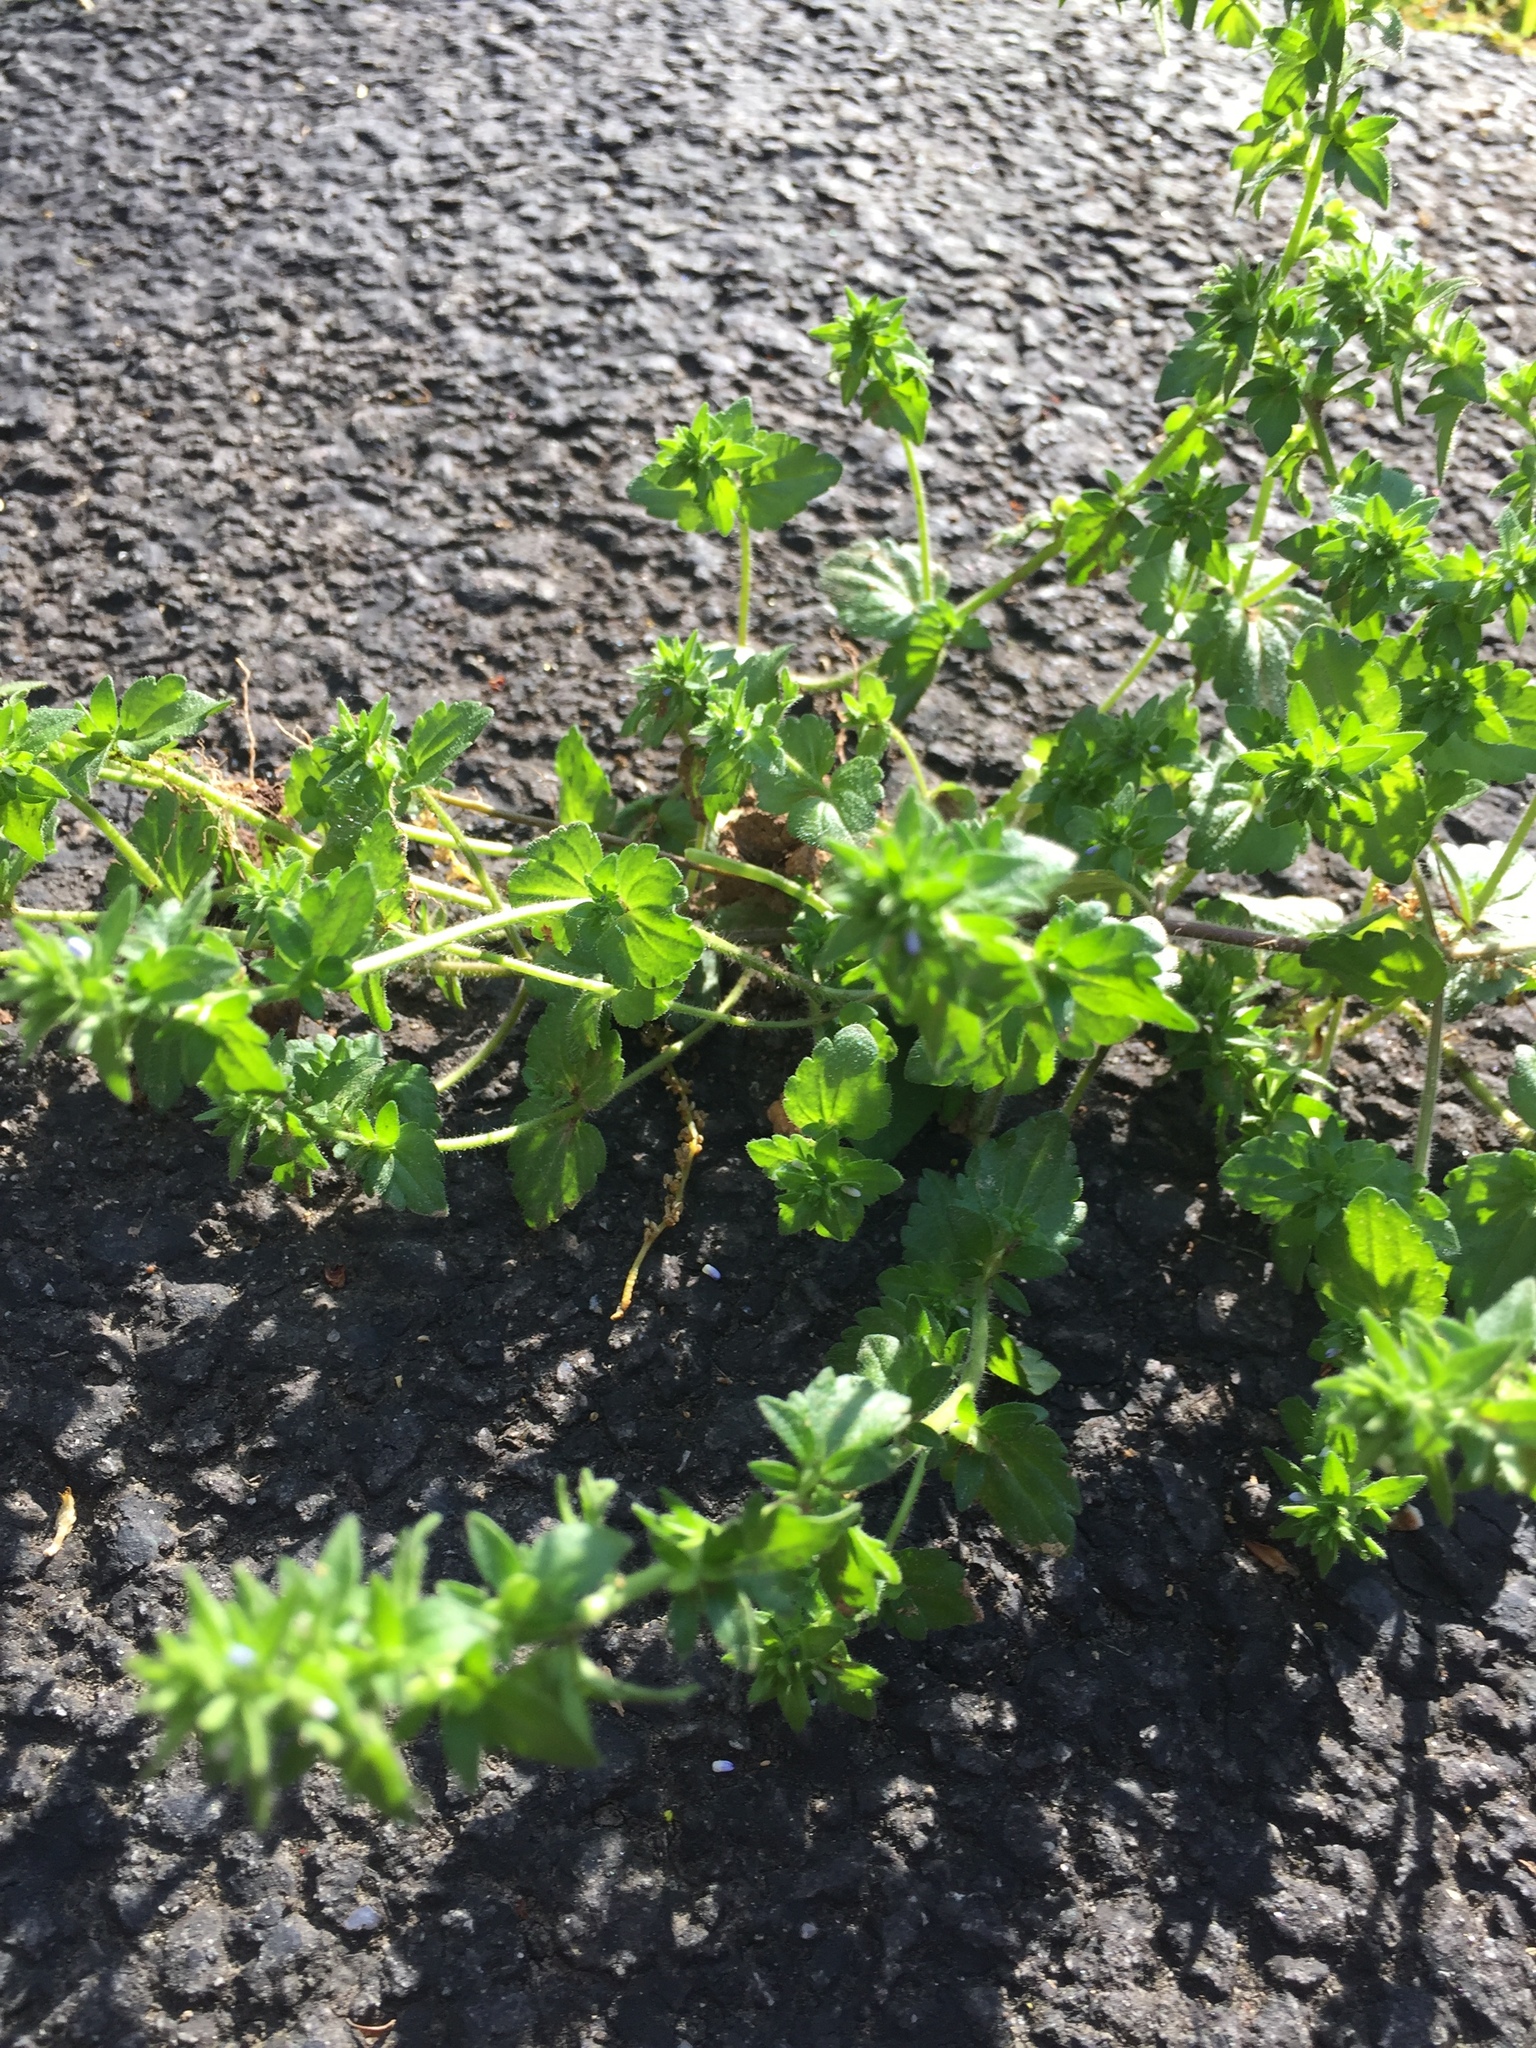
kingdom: Plantae
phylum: Tracheophyta
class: Magnoliopsida
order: Lamiales
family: Plantaginaceae
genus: Veronica
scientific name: Veronica arvensis
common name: Corn speedwell
